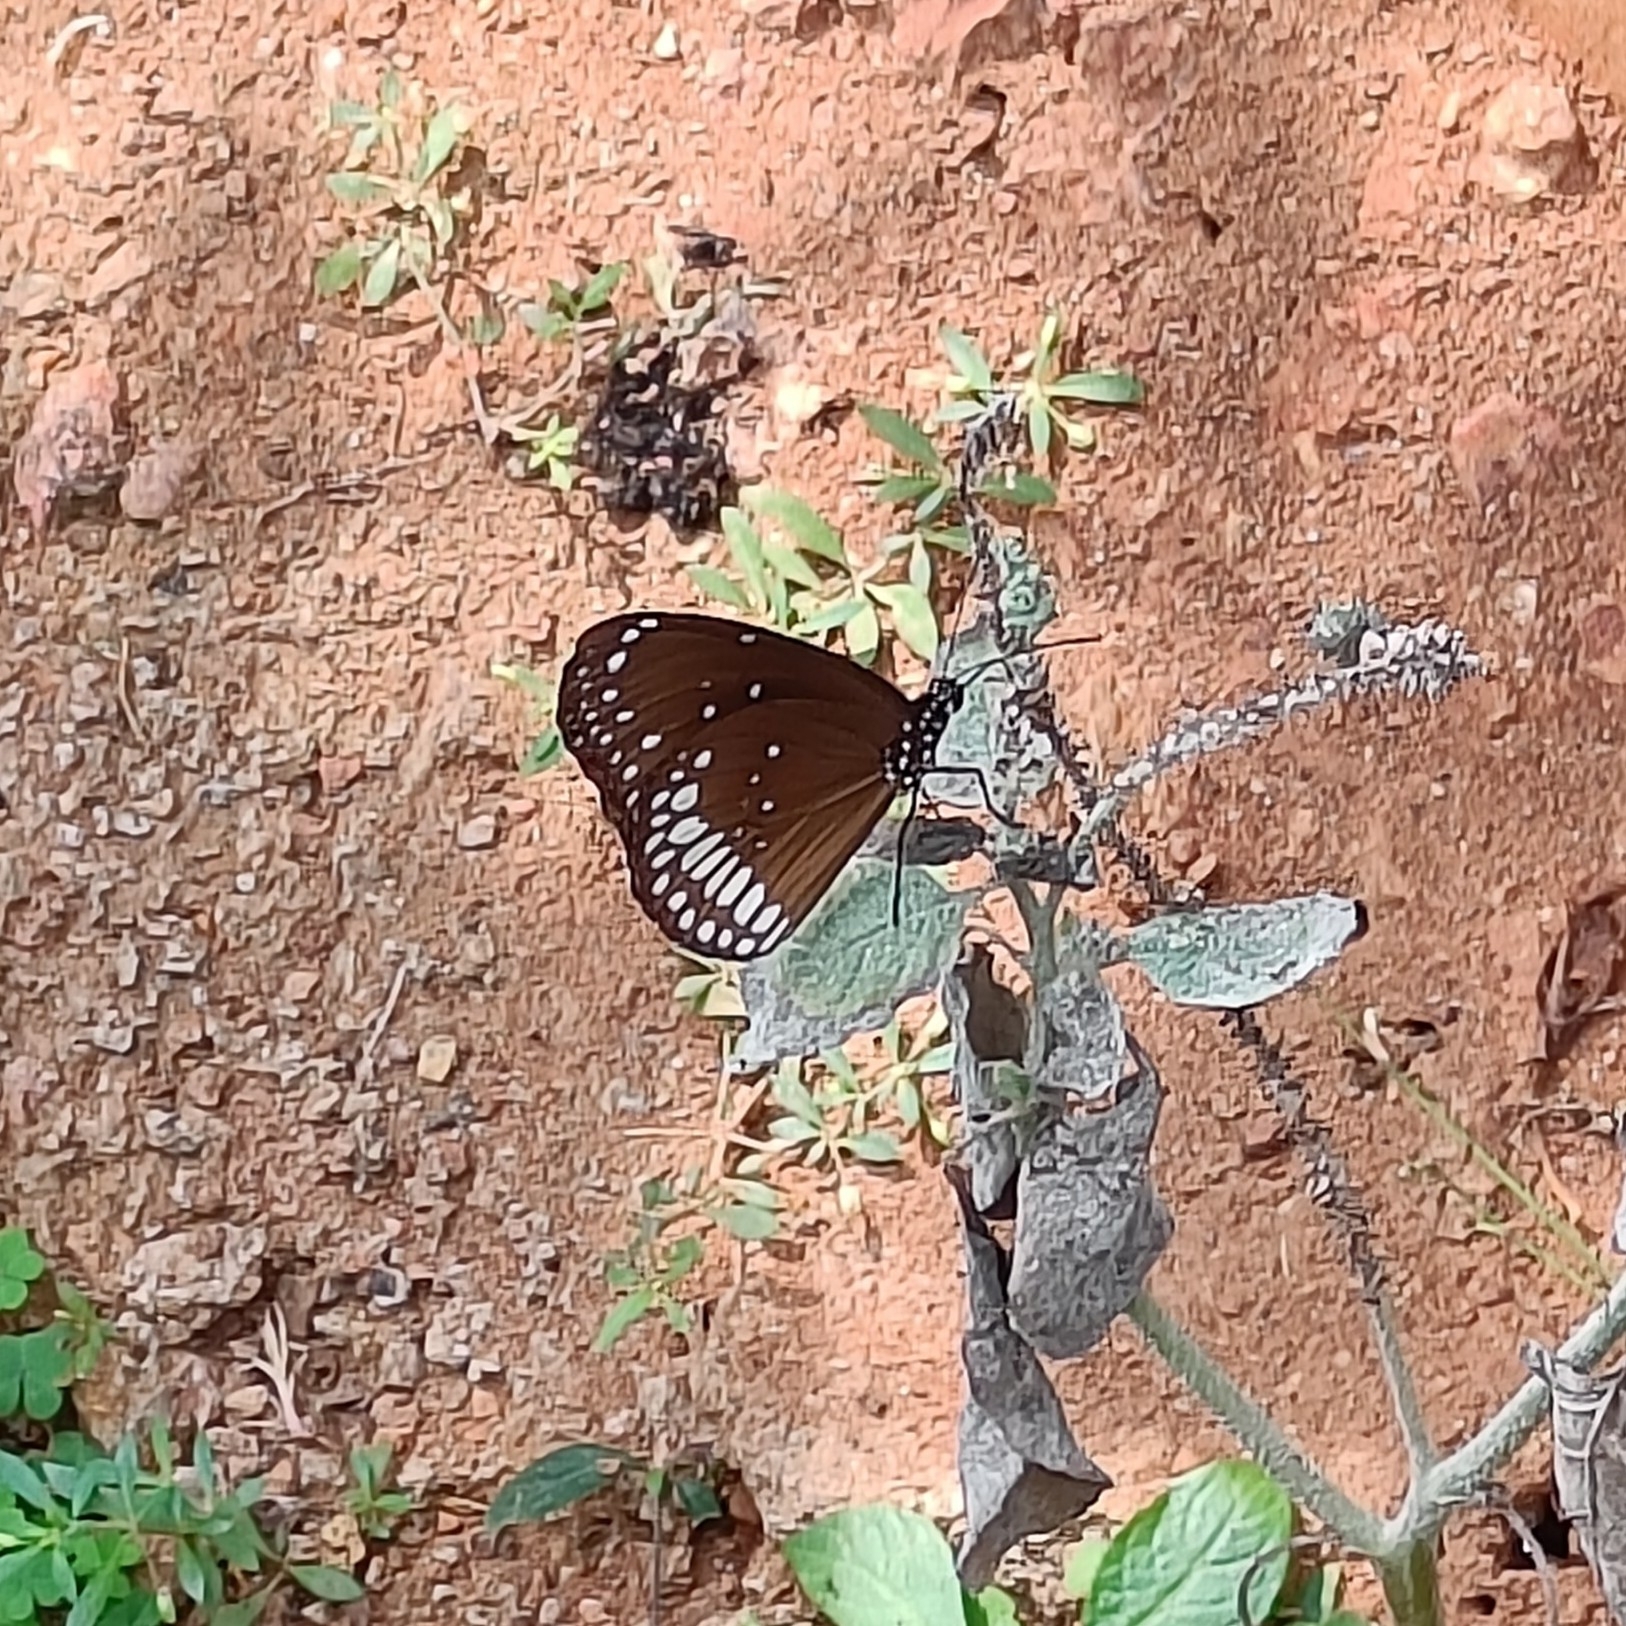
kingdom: Animalia
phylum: Arthropoda
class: Insecta
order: Lepidoptera
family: Nymphalidae
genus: Euploea
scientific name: Euploea core
